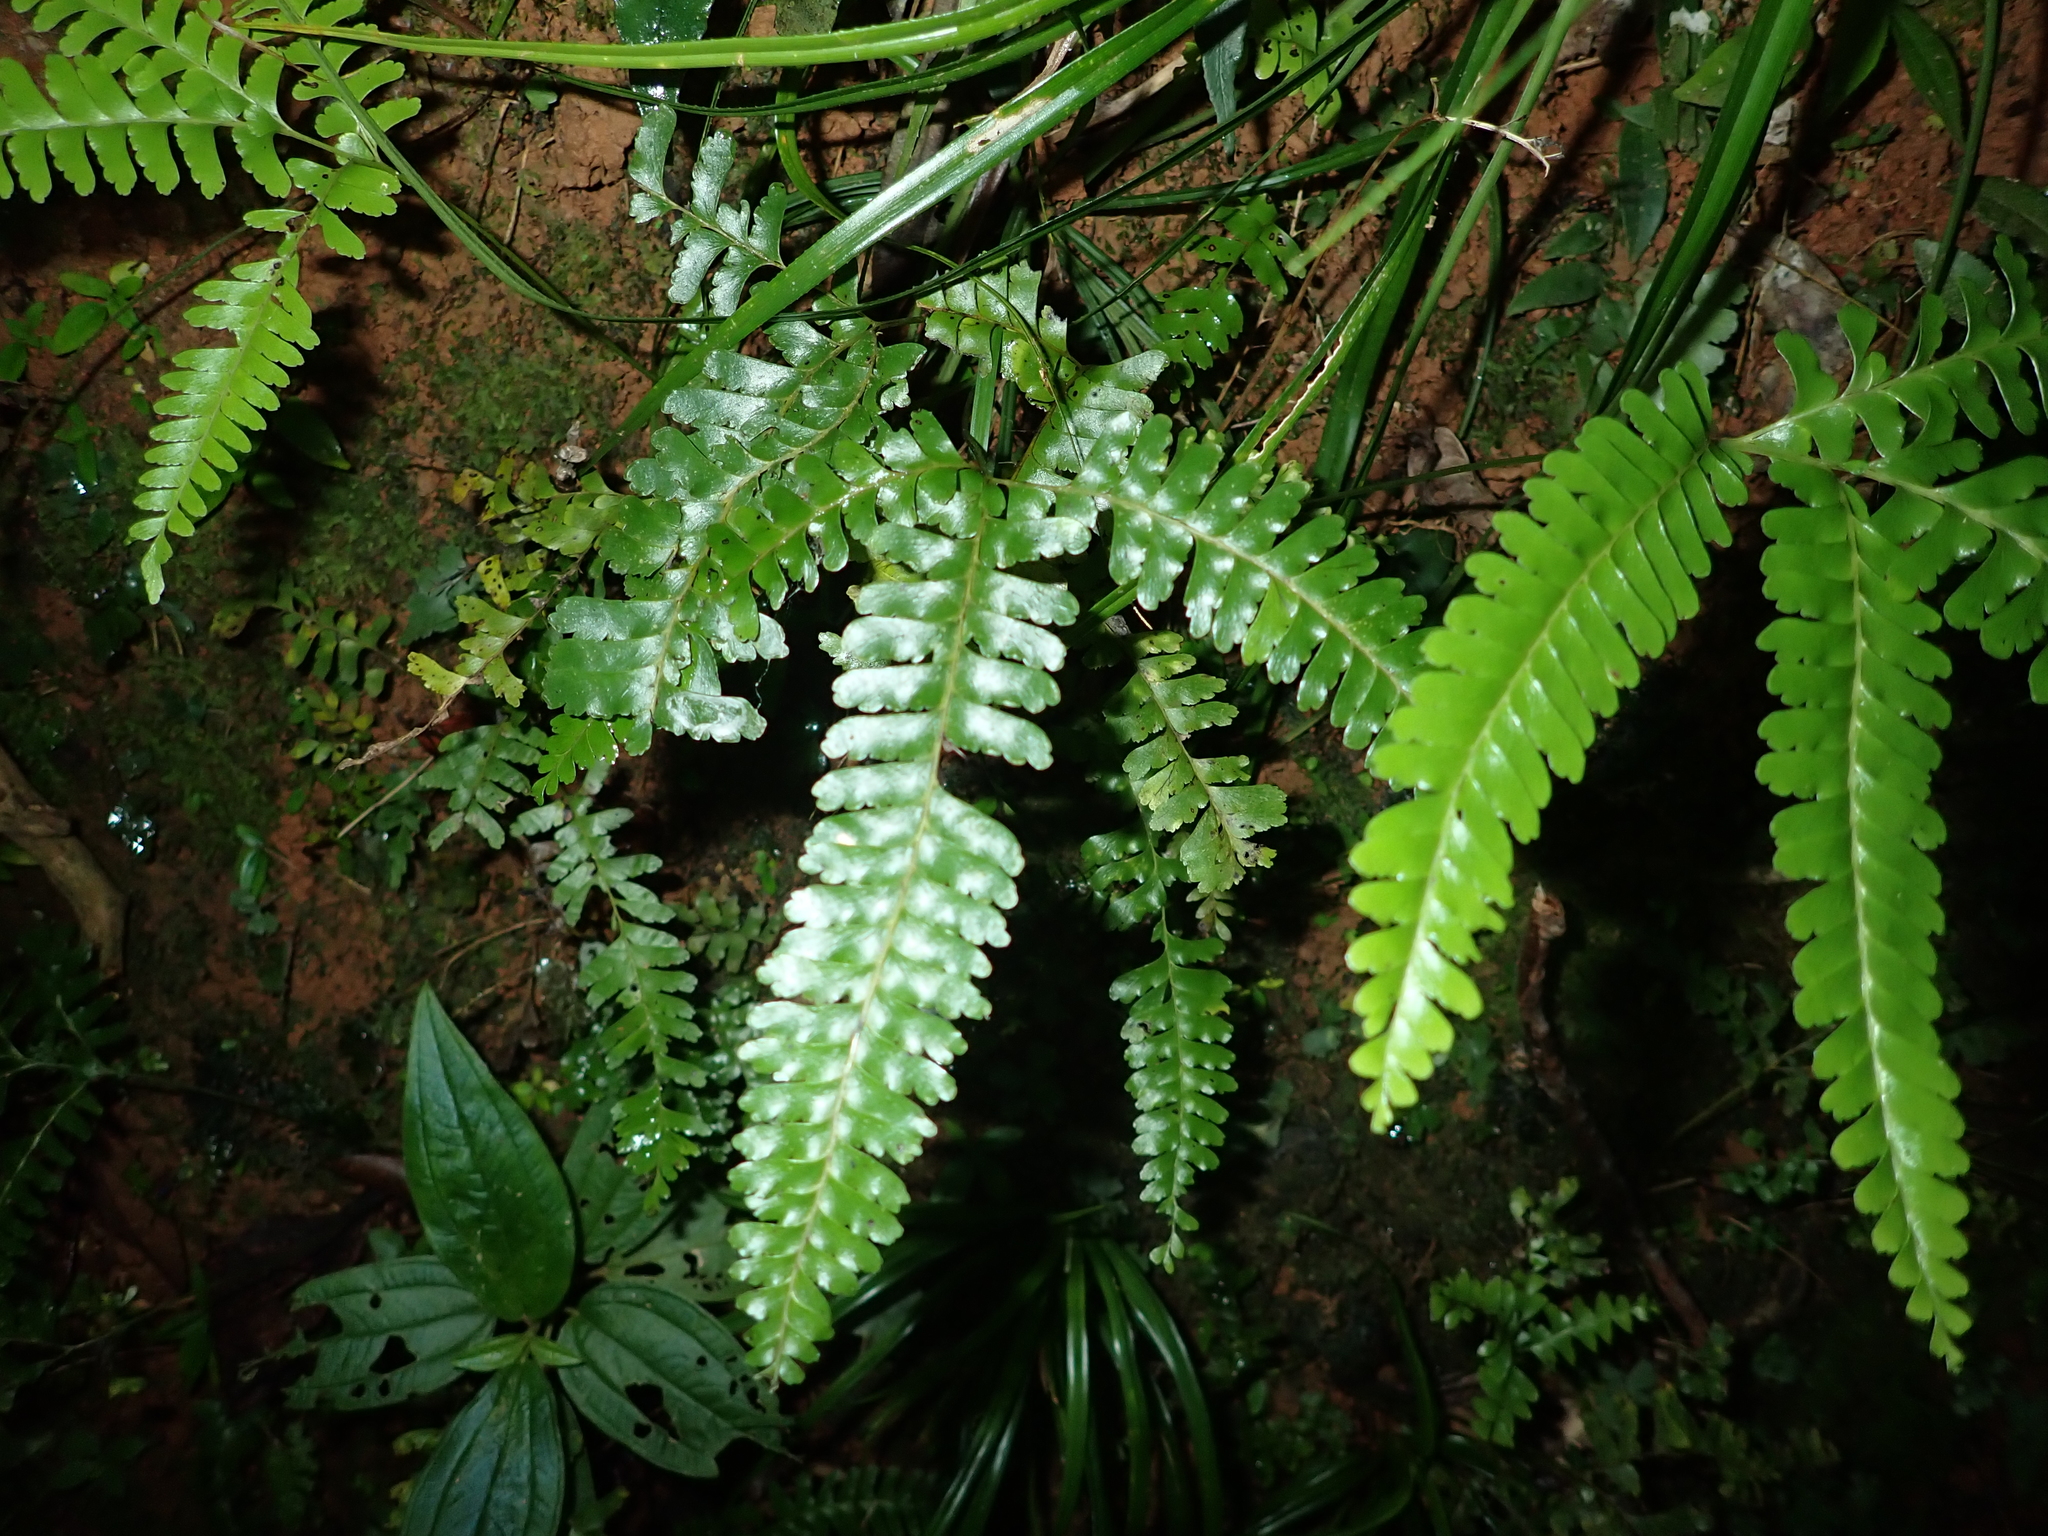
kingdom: Plantae
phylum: Tracheophyta
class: Polypodiopsida
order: Polypodiales
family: Lindsaeaceae
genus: Lindsaea
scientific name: Lindsaea cultrata
